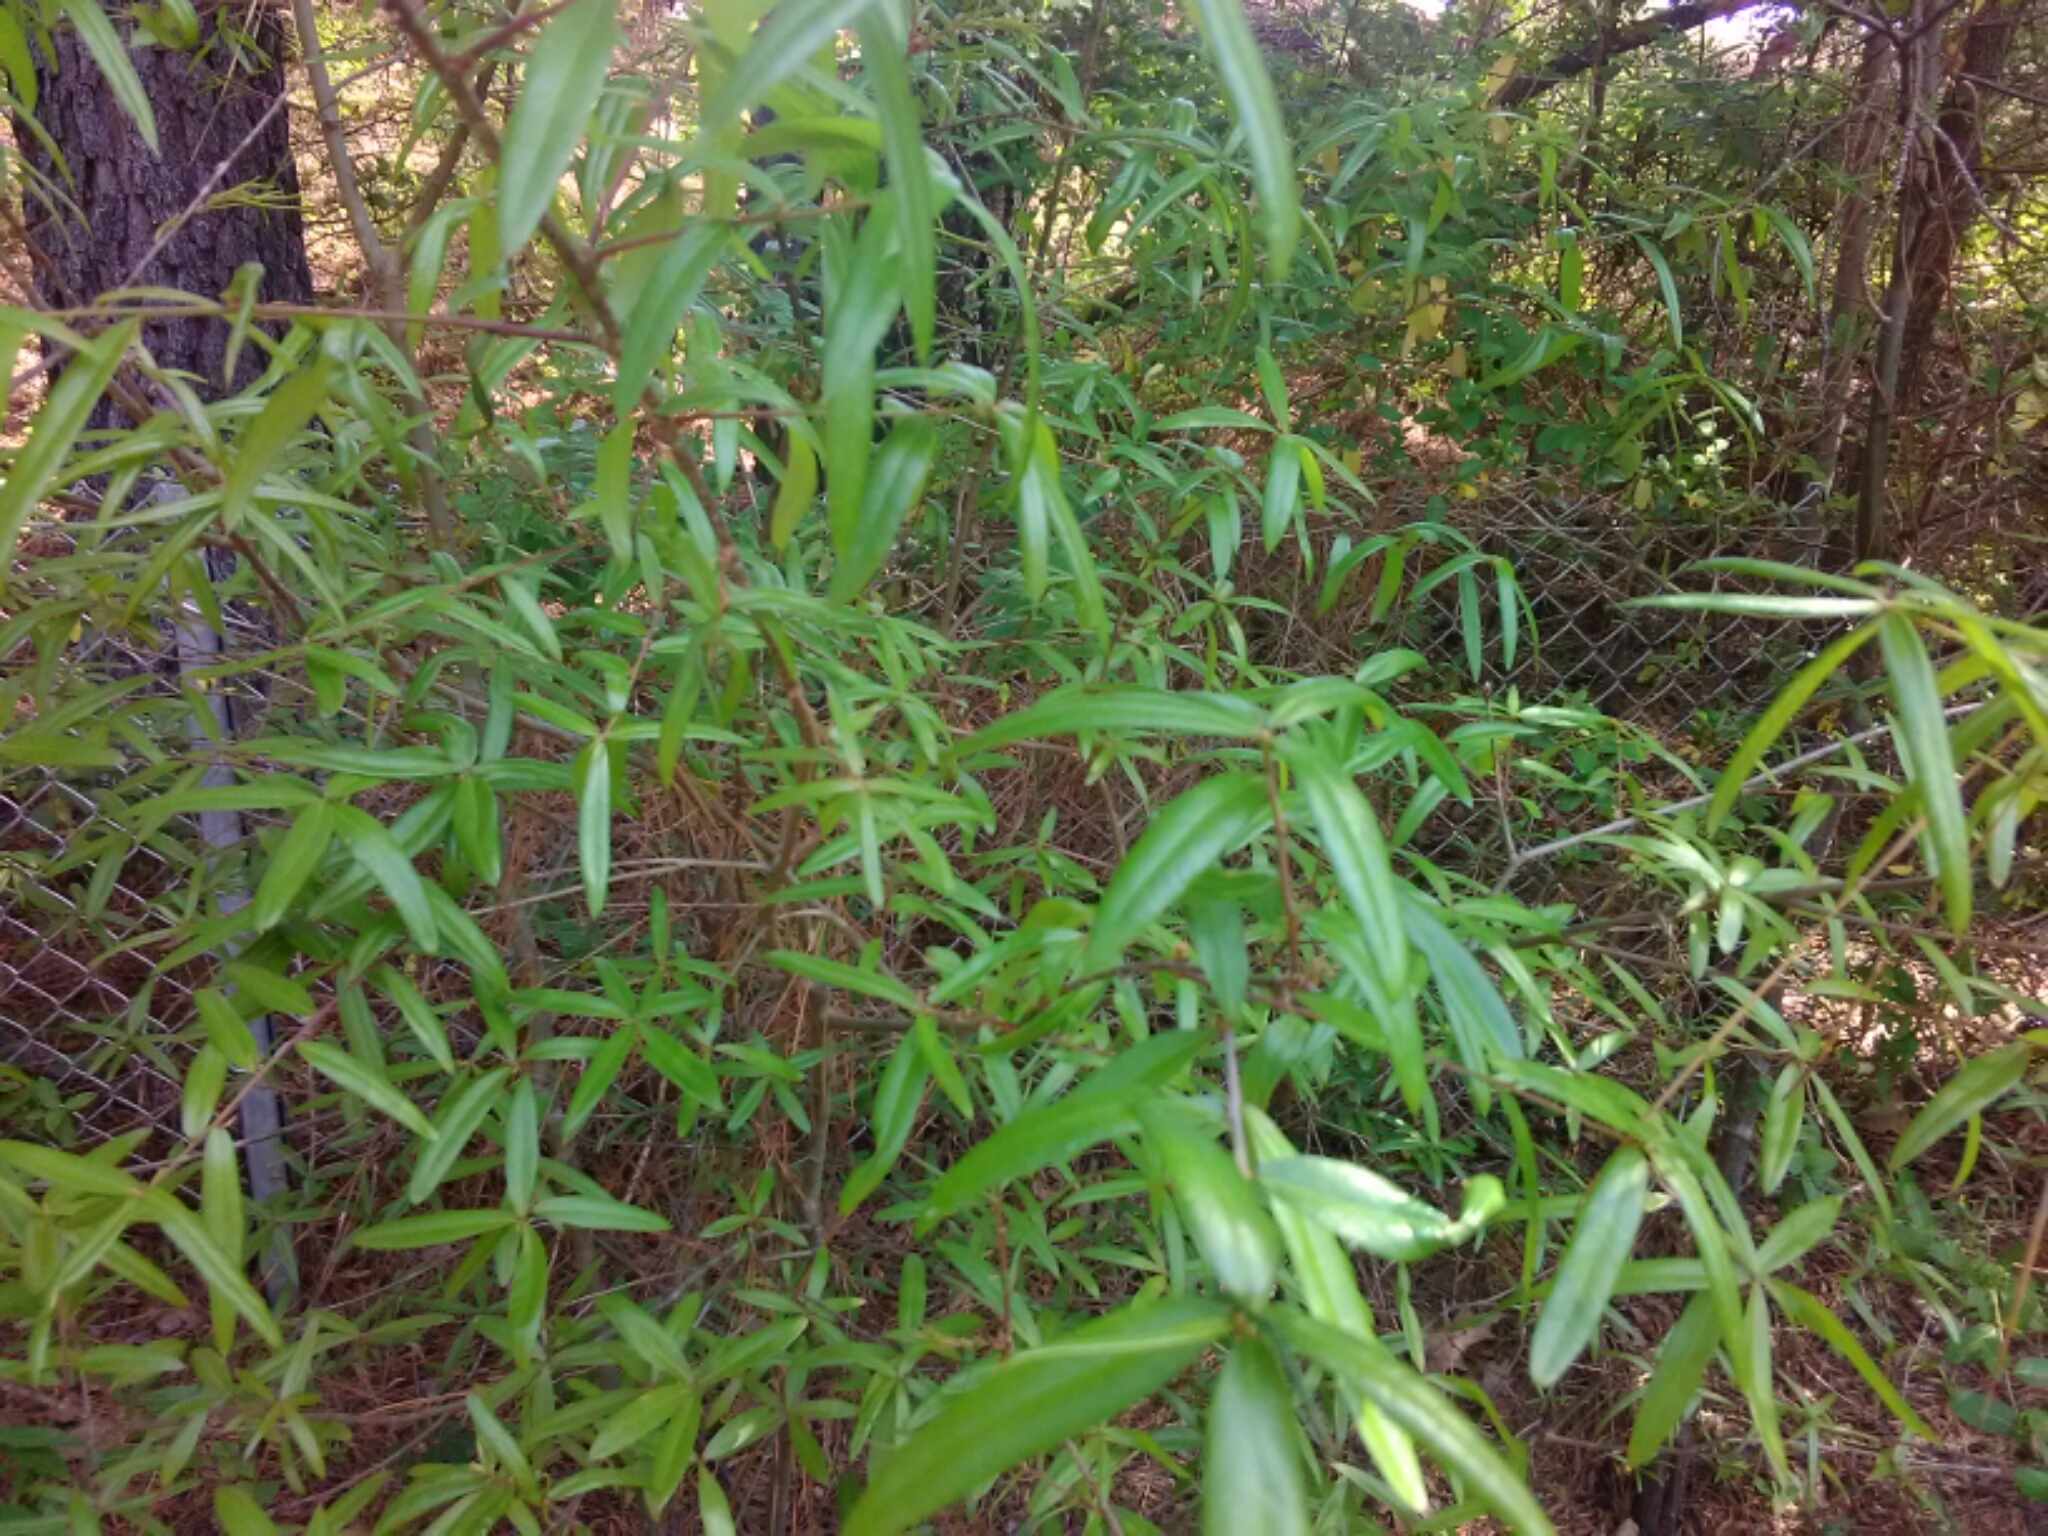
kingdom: Plantae
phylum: Tracheophyta
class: Magnoliopsida
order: Fagales
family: Fagaceae
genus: Quercus
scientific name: Quercus phellos
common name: Willow oak
